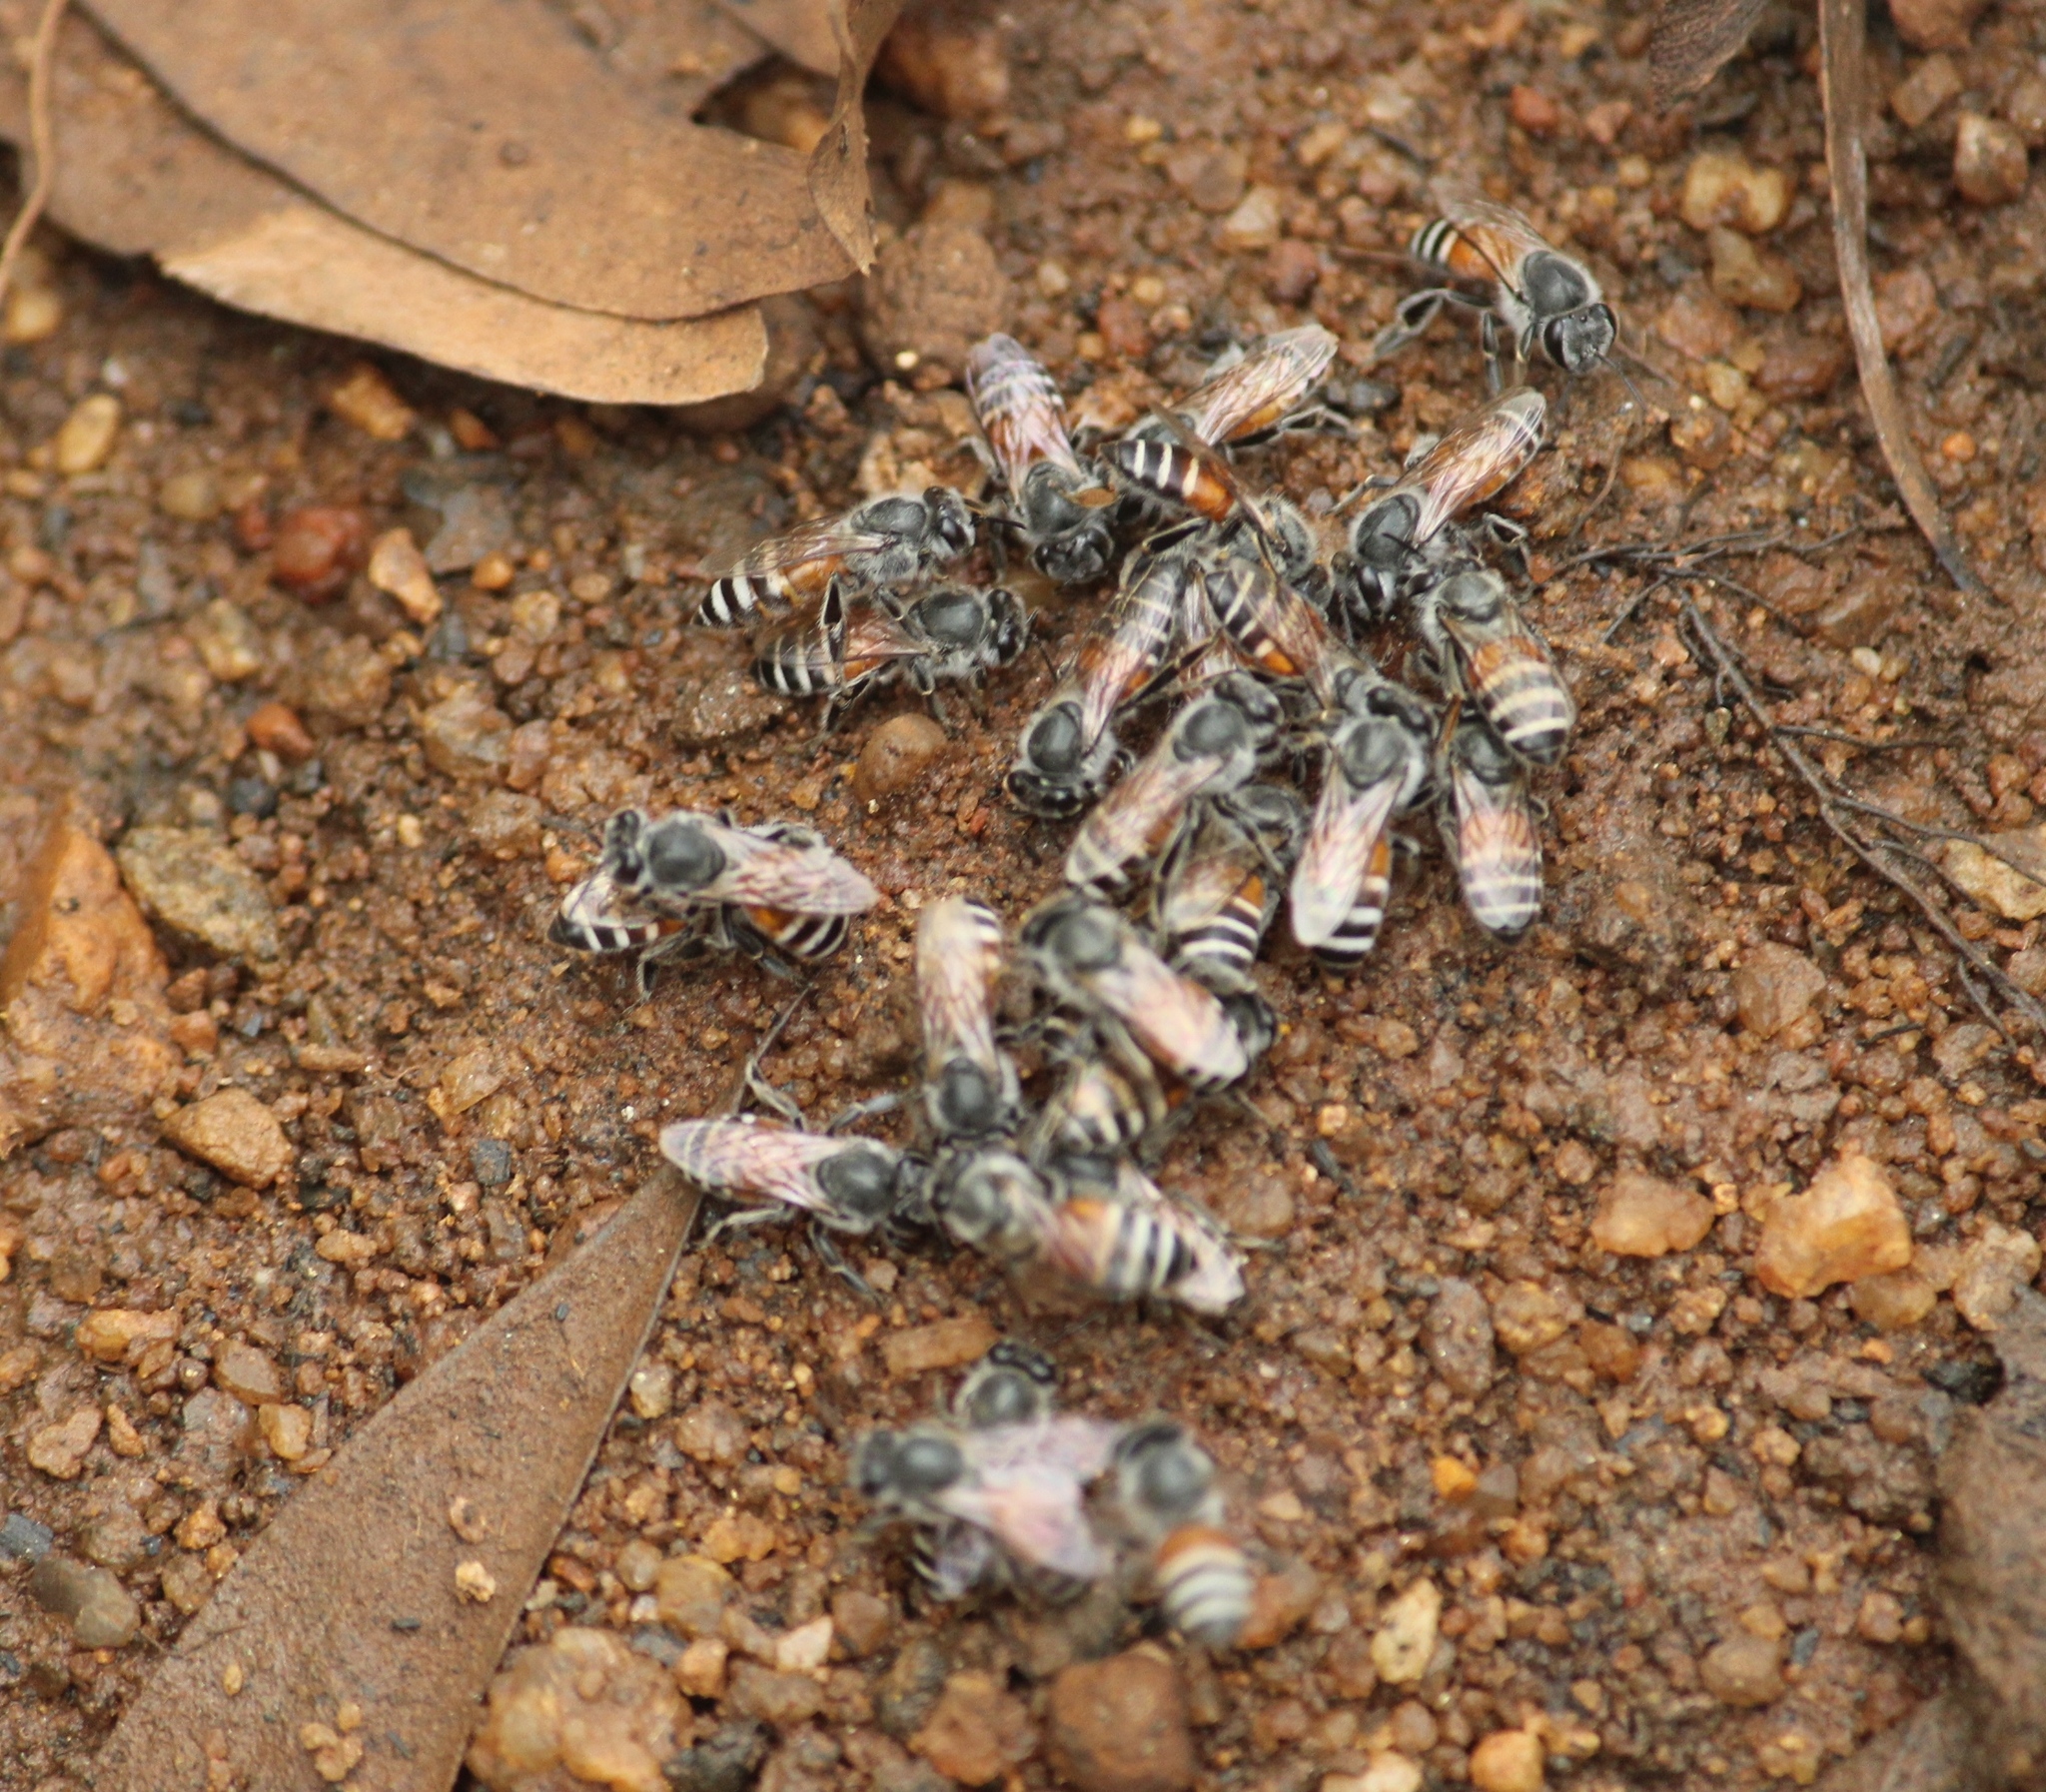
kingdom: Animalia
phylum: Arthropoda
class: Insecta
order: Hymenoptera
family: Apidae
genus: Apis
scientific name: Apis florea
